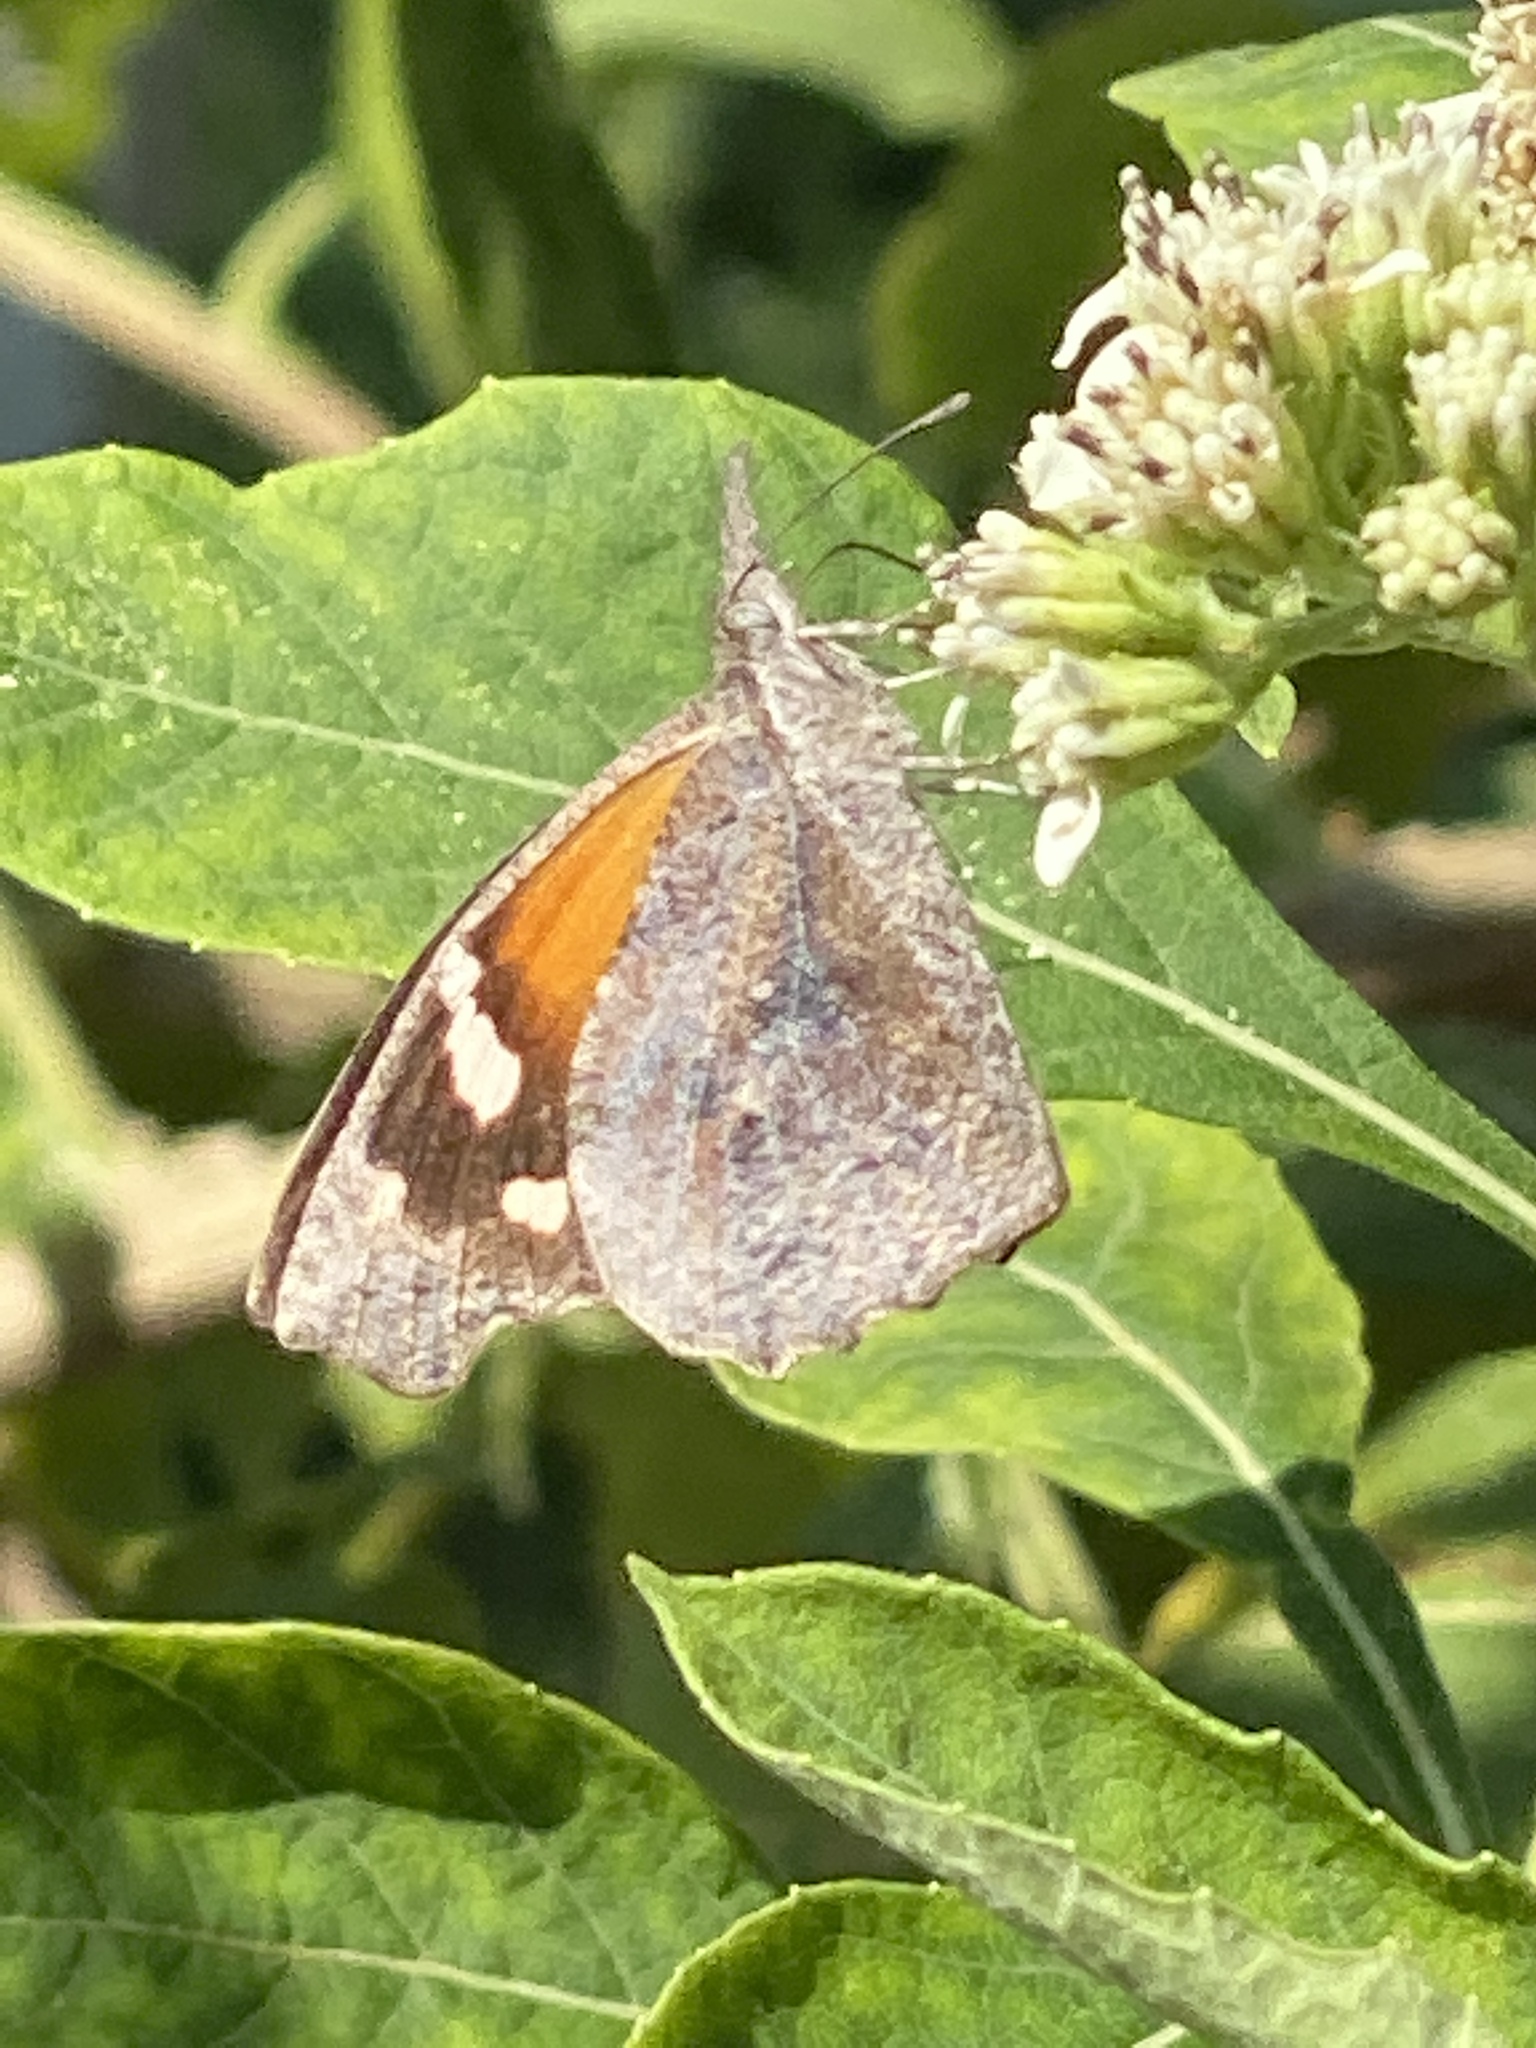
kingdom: Animalia
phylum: Arthropoda
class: Insecta
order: Lepidoptera
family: Nymphalidae
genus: Libytheana
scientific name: Libytheana carinenta
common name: American snout
